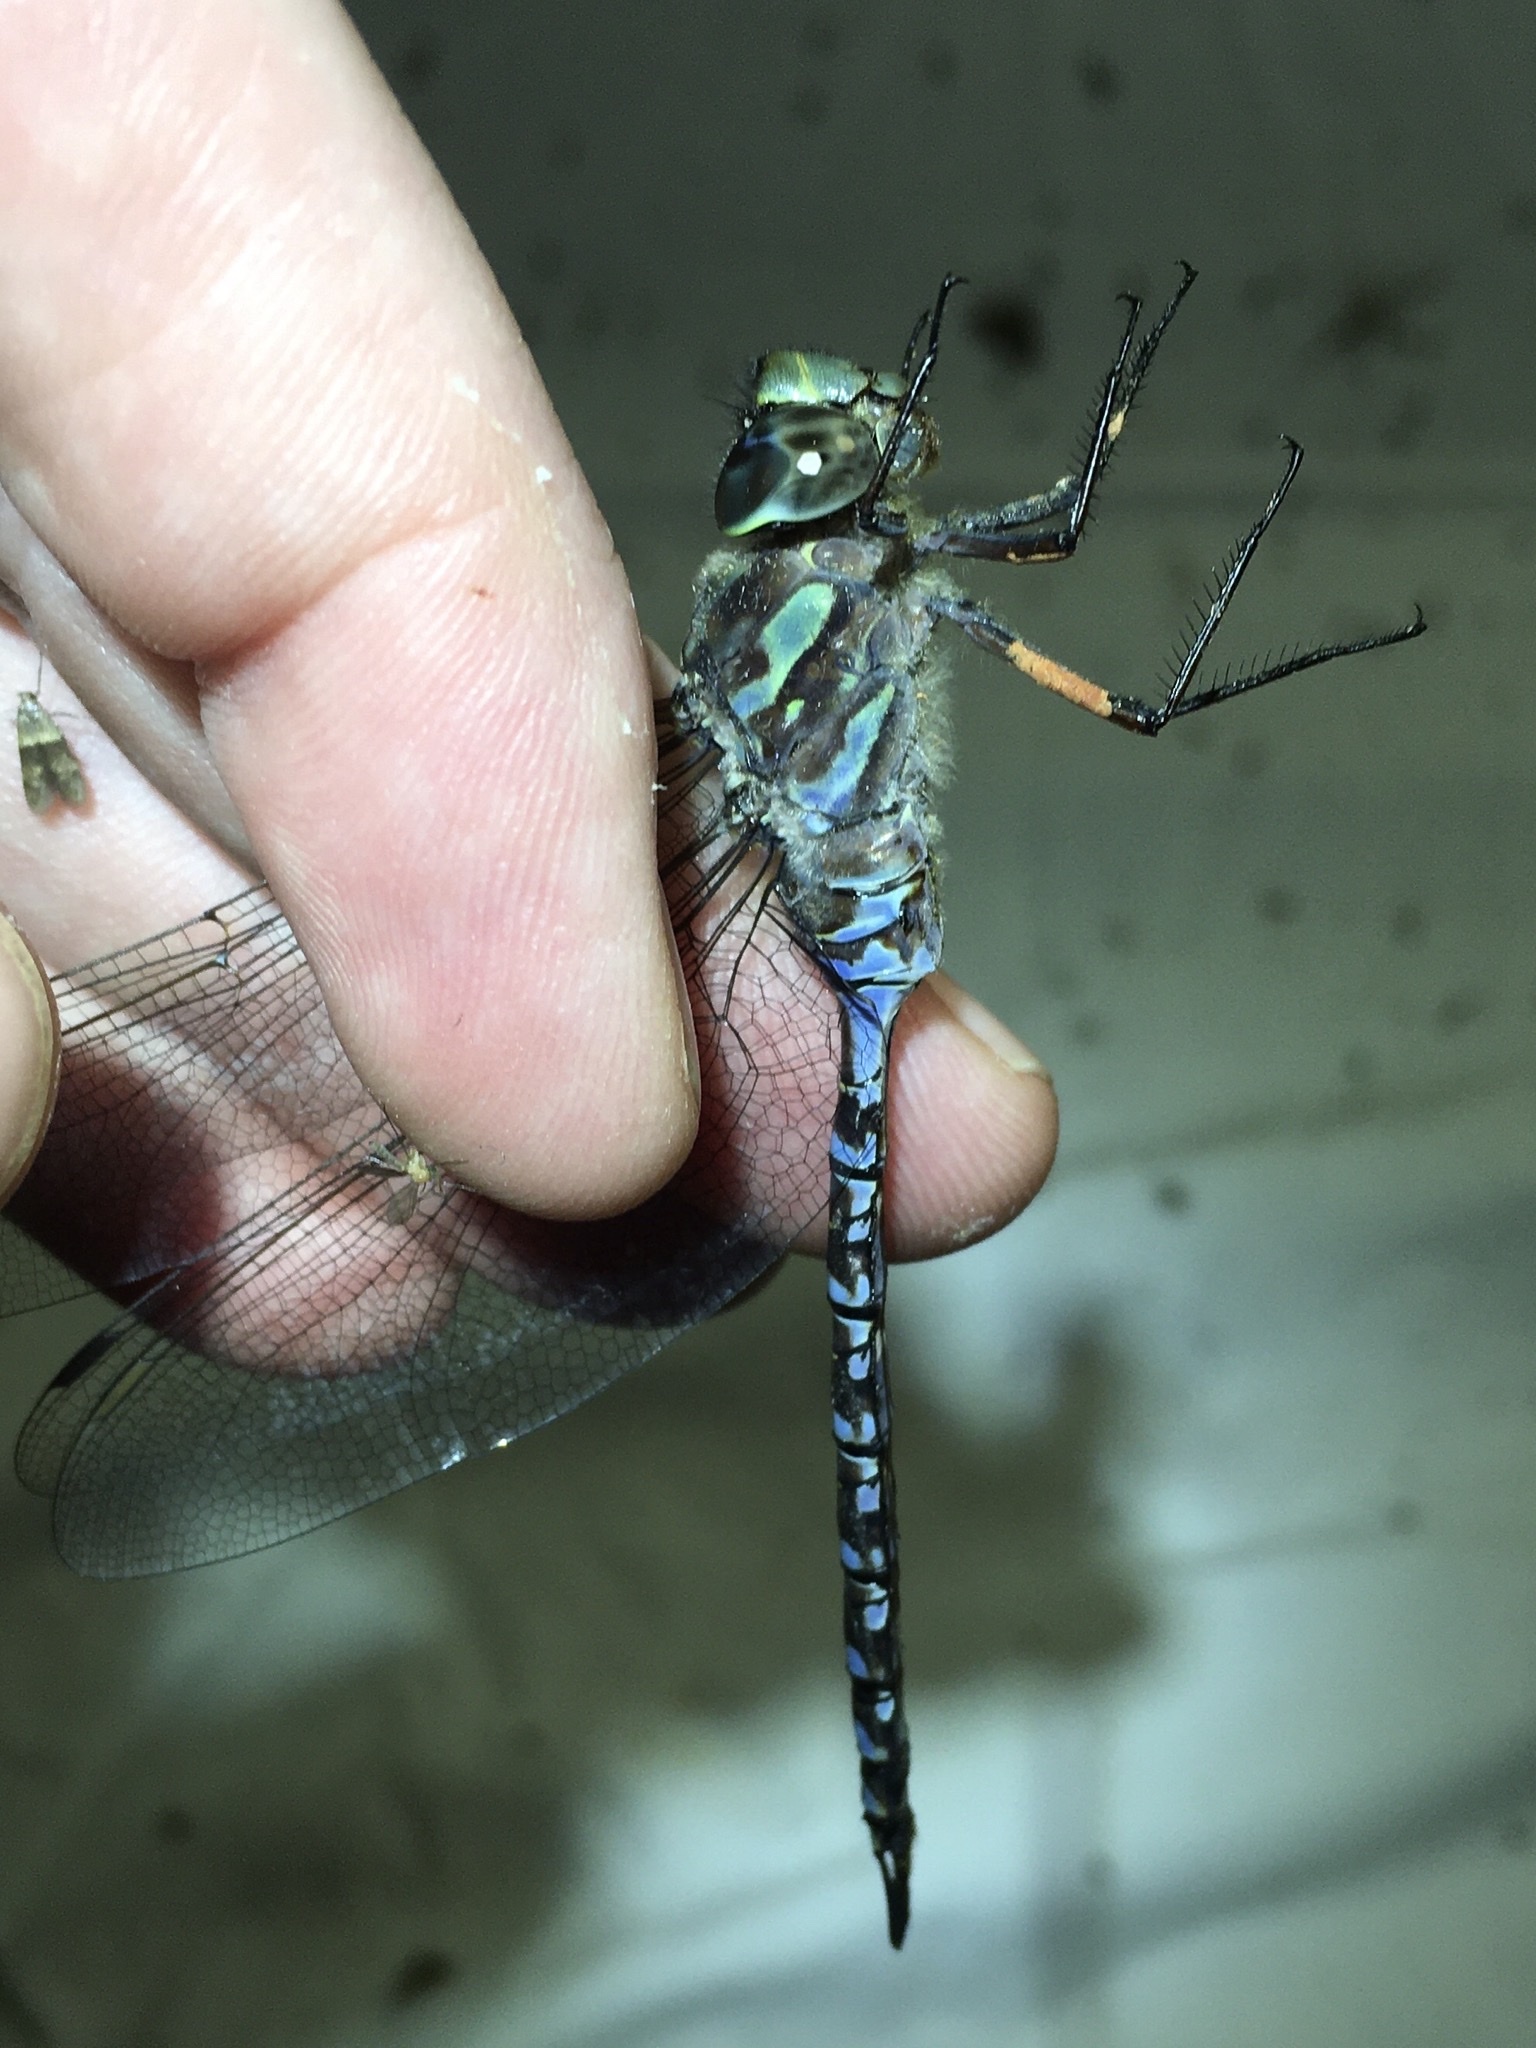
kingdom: Animalia
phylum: Arthropoda
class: Insecta
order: Odonata
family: Aeshnidae
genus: Aeshna
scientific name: Aeshna canadensis
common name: Canada darner
